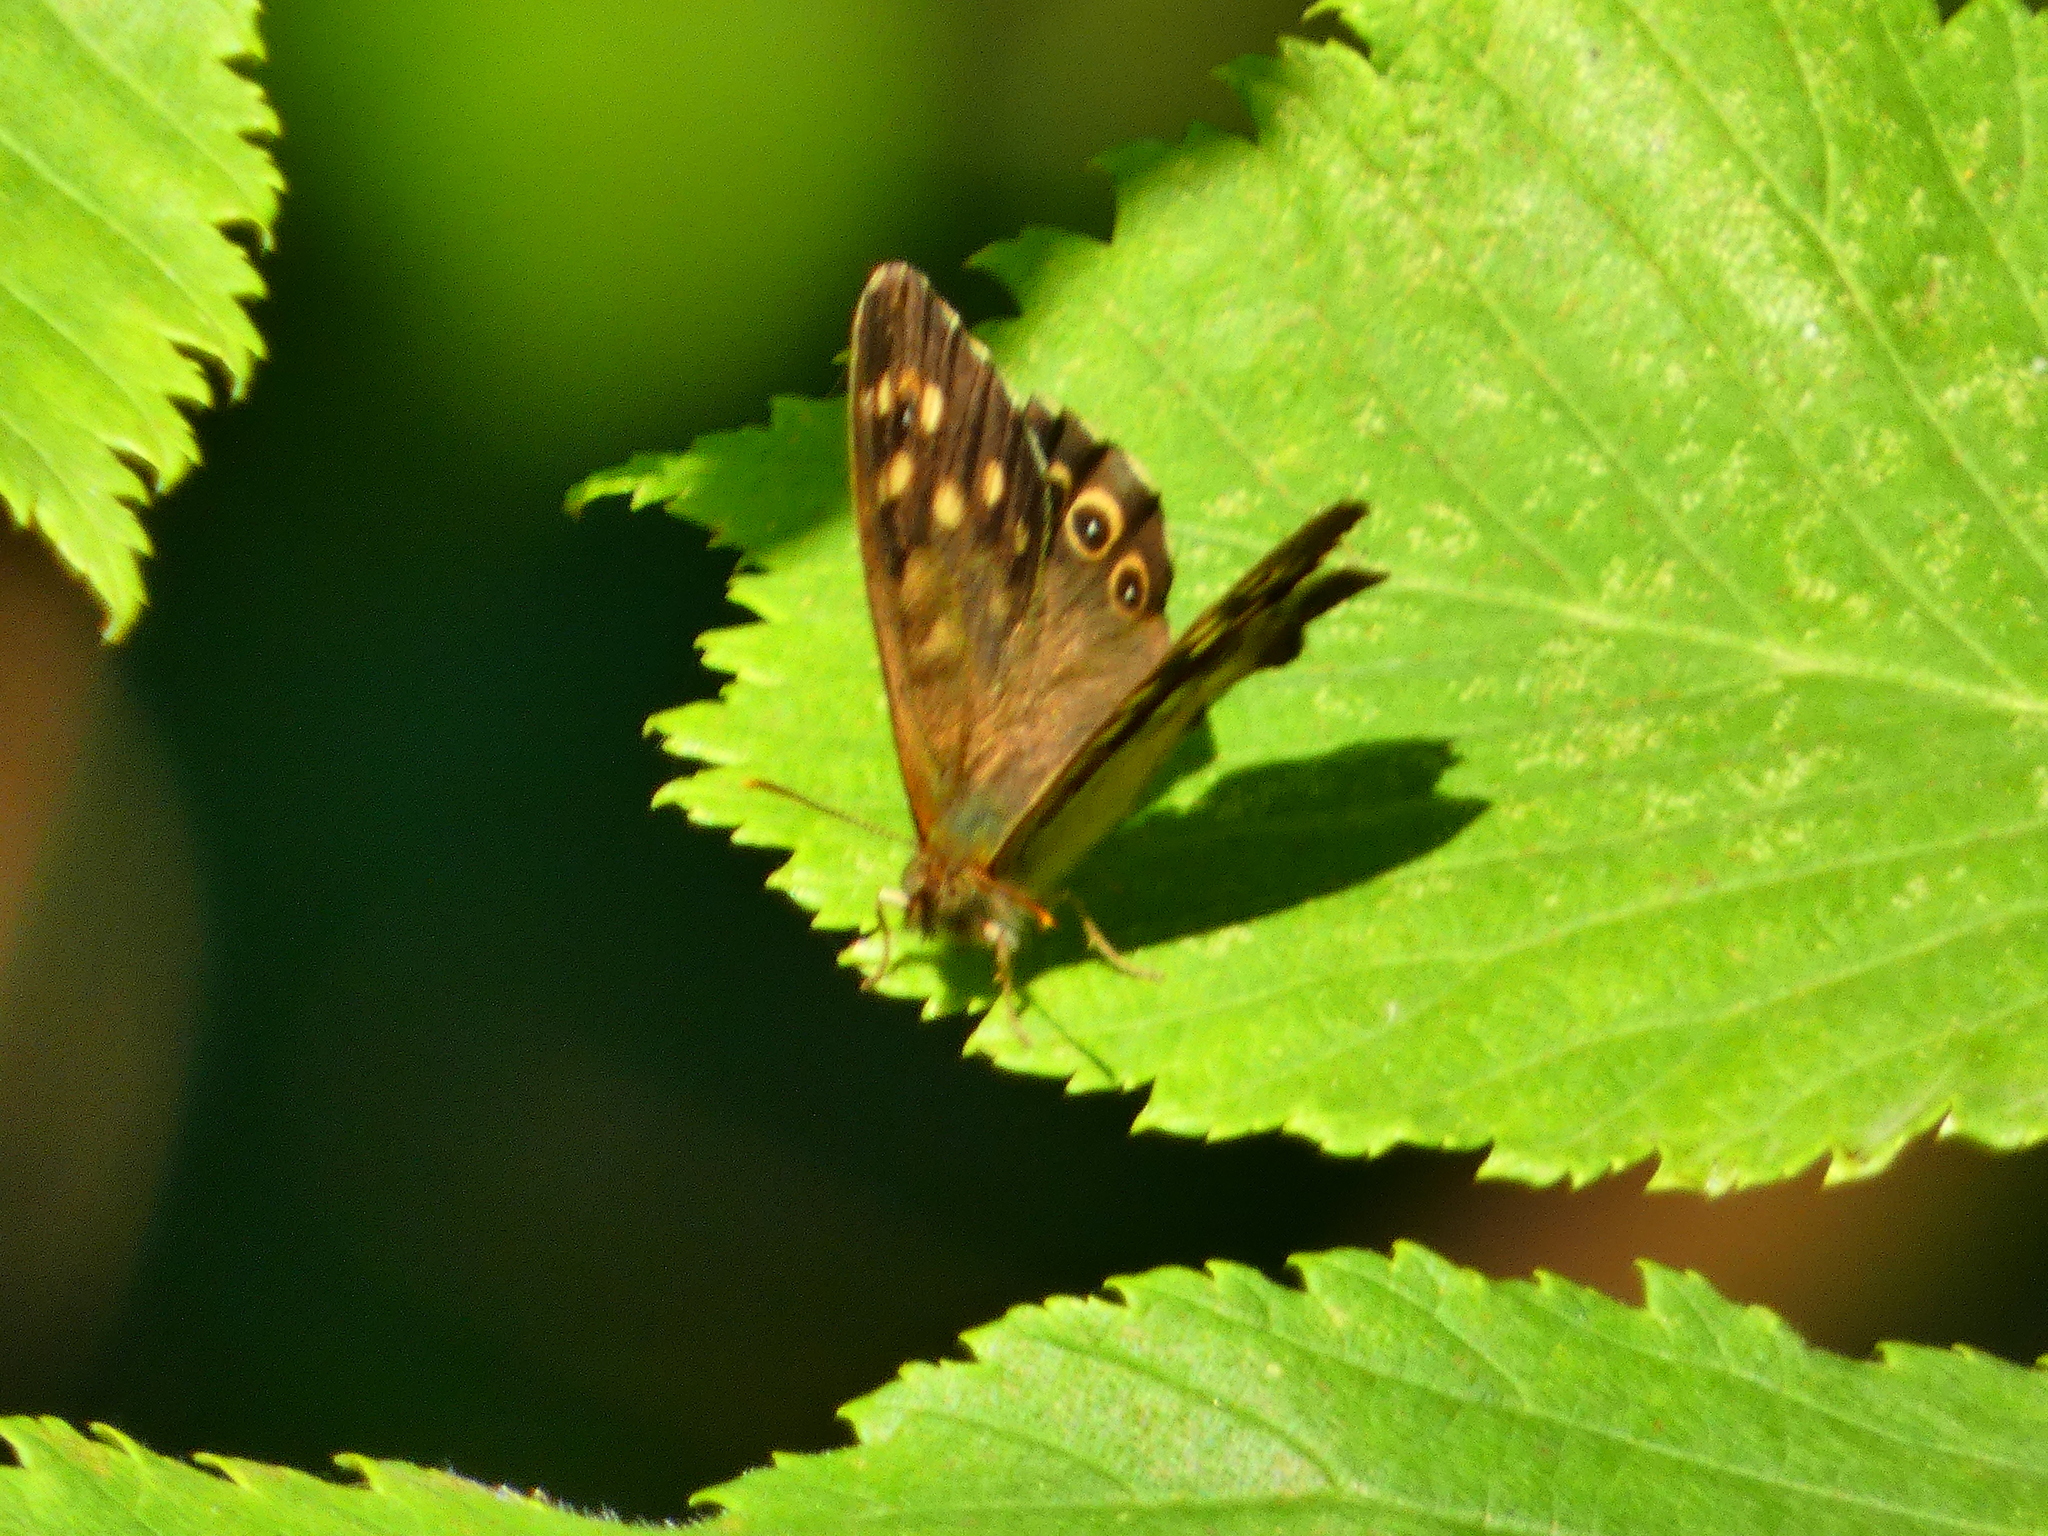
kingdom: Animalia
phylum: Arthropoda
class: Insecta
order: Lepidoptera
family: Nymphalidae
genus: Pararge
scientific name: Pararge aegeria
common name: Speckled wood
